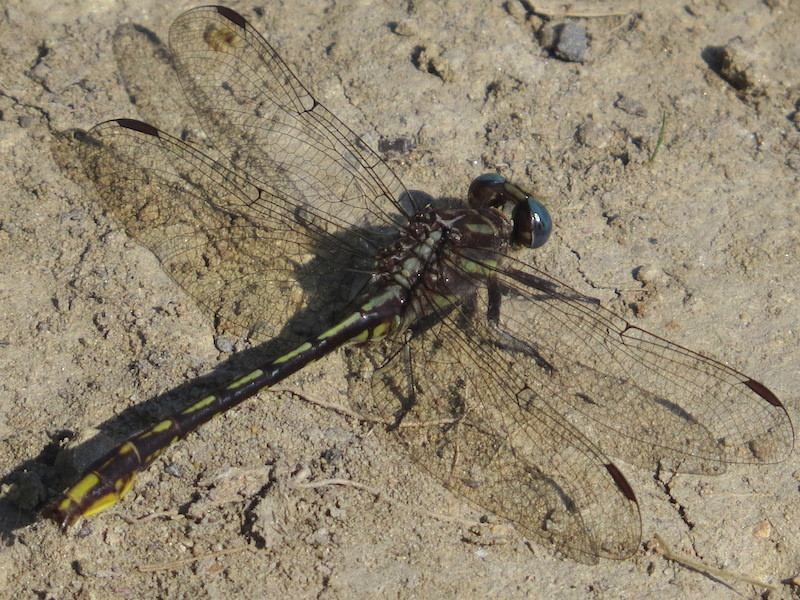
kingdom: Animalia
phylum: Arthropoda
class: Insecta
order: Odonata
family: Gomphidae
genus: Phanogomphus
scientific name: Phanogomphus exilis
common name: Lancet clubtail
